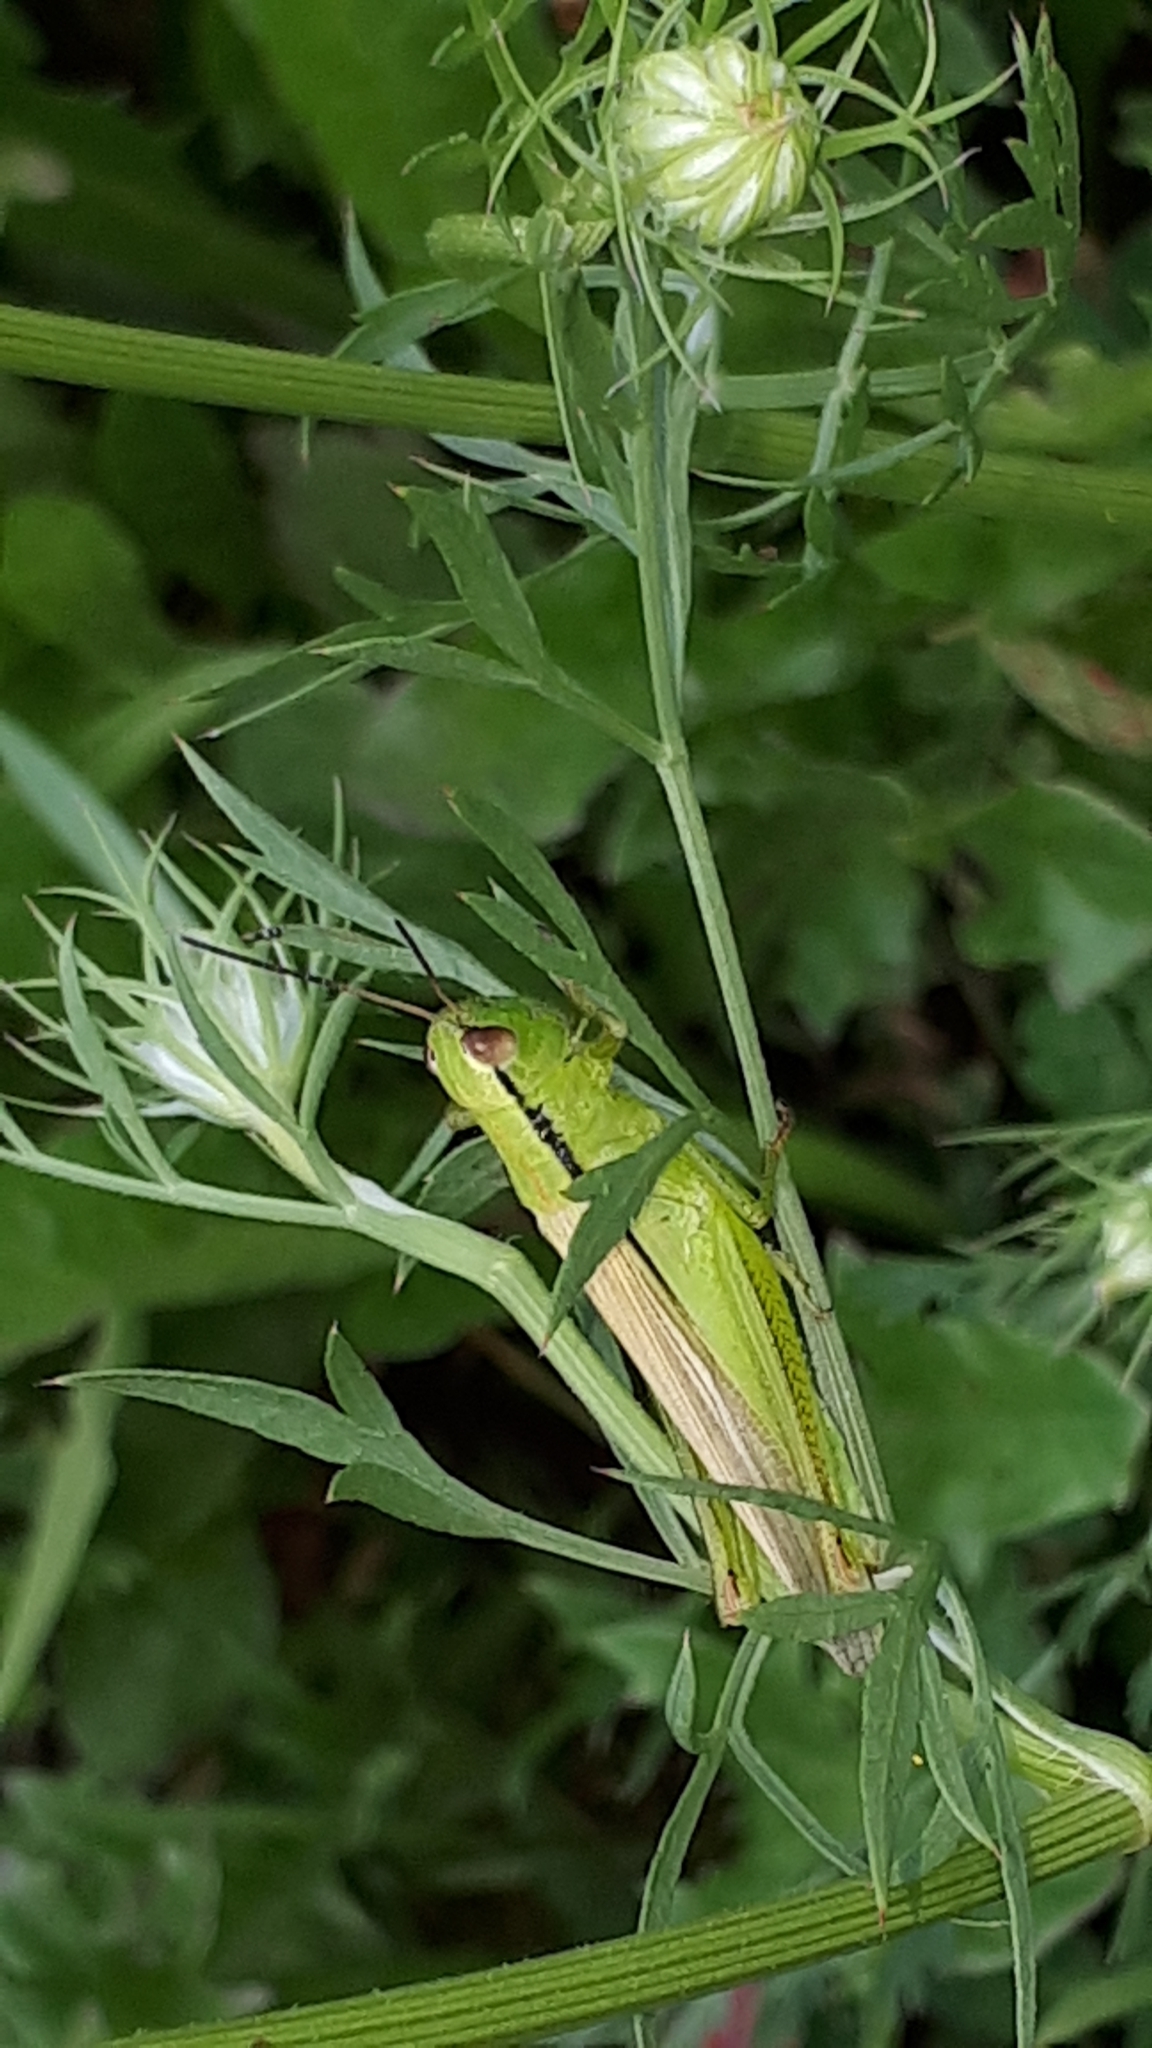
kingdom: Animalia
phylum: Arthropoda
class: Insecta
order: Orthoptera
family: Acrididae
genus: Mecostethus
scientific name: Mecostethus parapleurus
